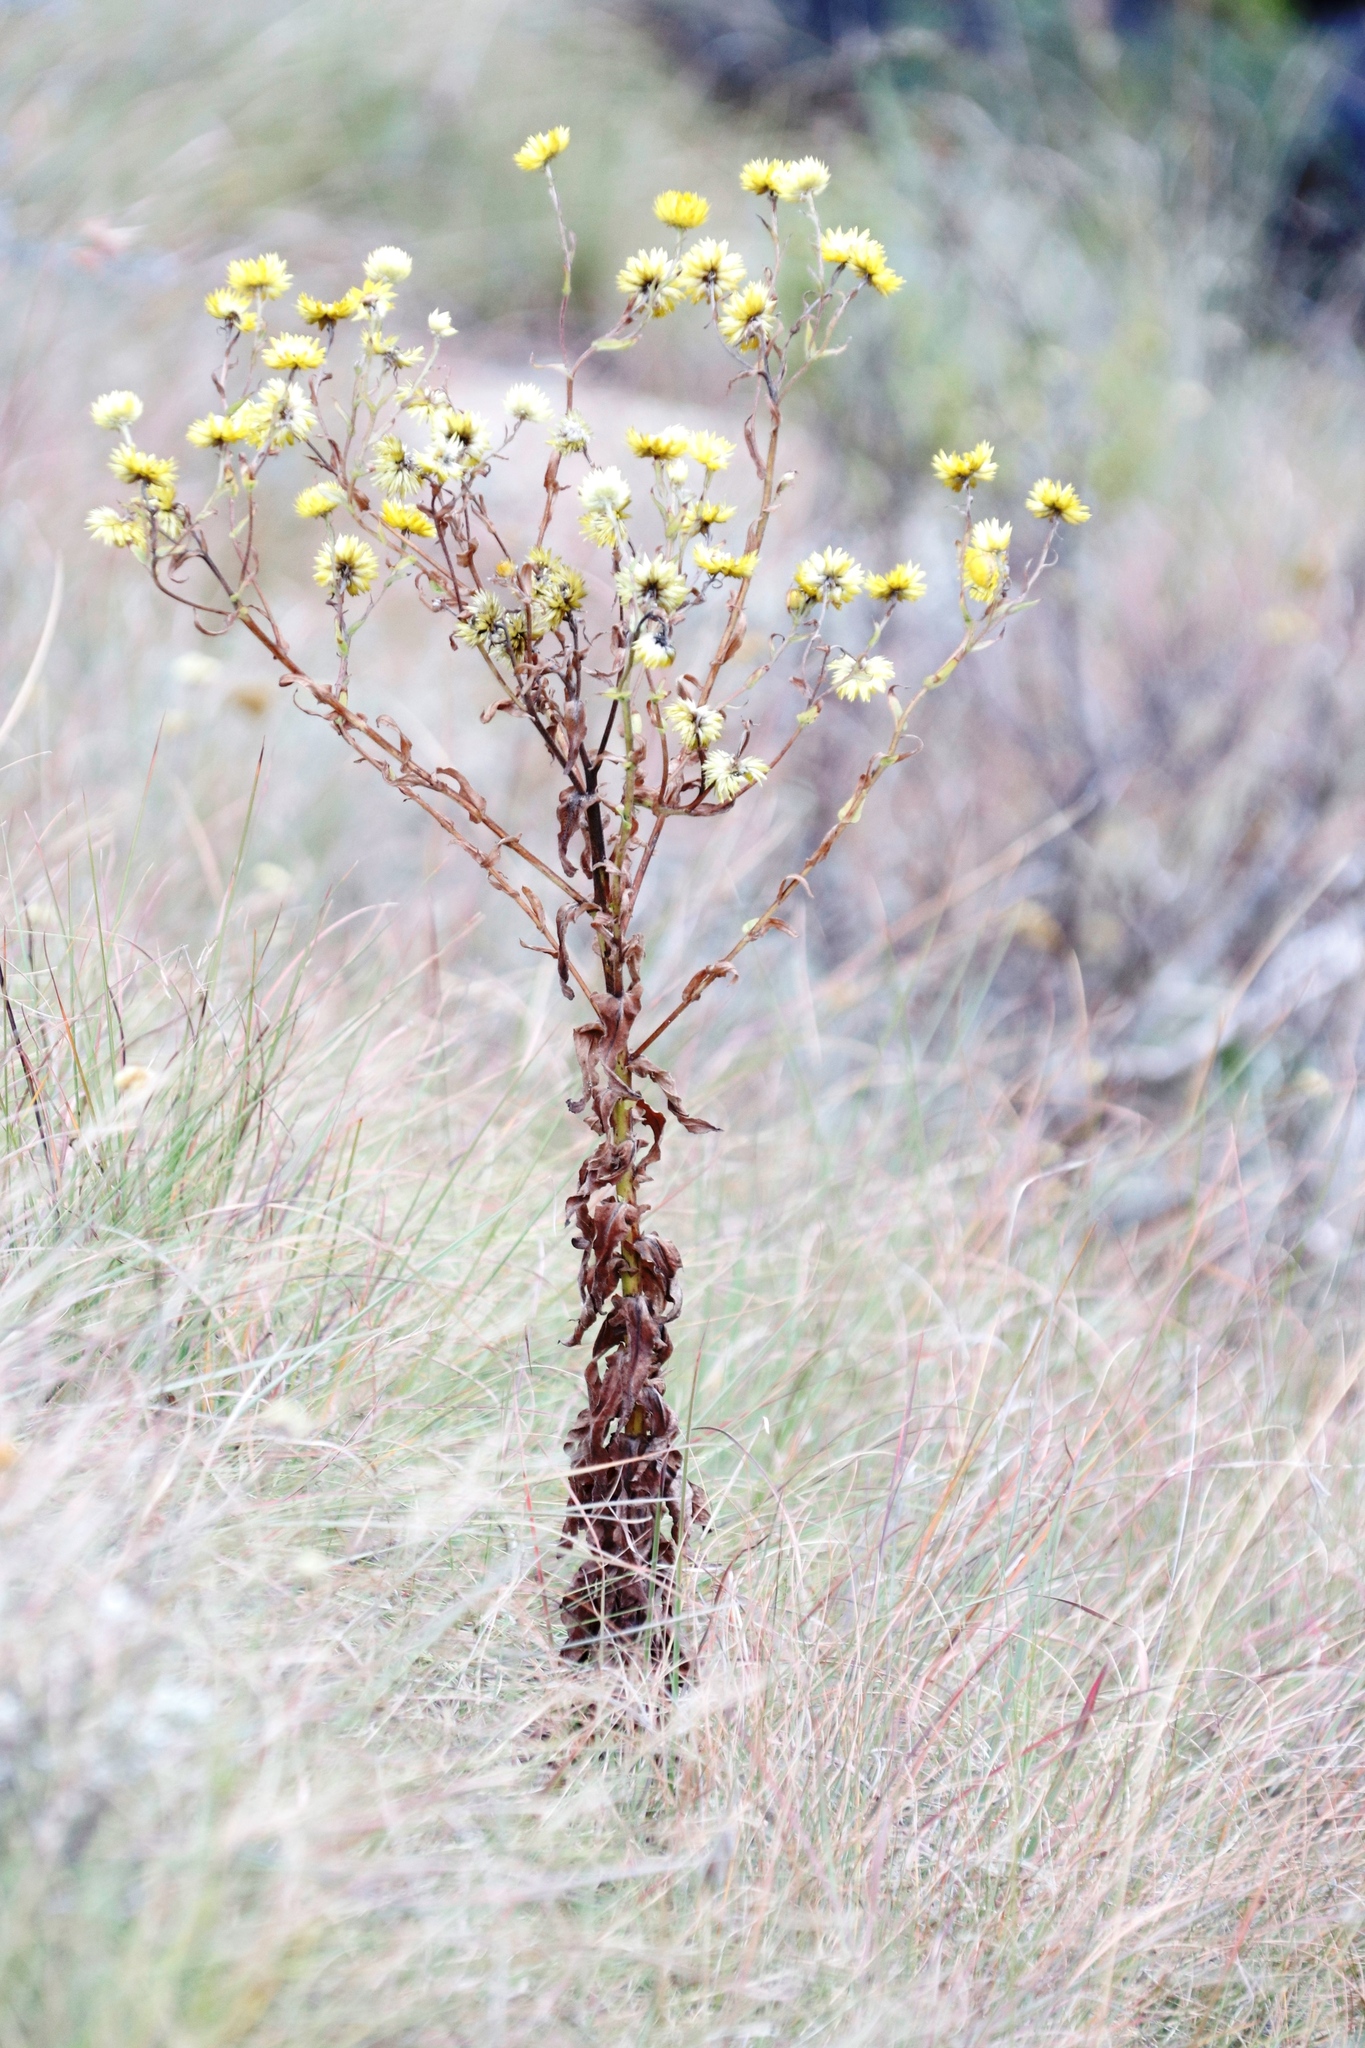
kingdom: Plantae
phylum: Tracheophyta
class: Magnoliopsida
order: Asterales
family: Asteraceae
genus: Helichrysum
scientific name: Helichrysum cooperi
